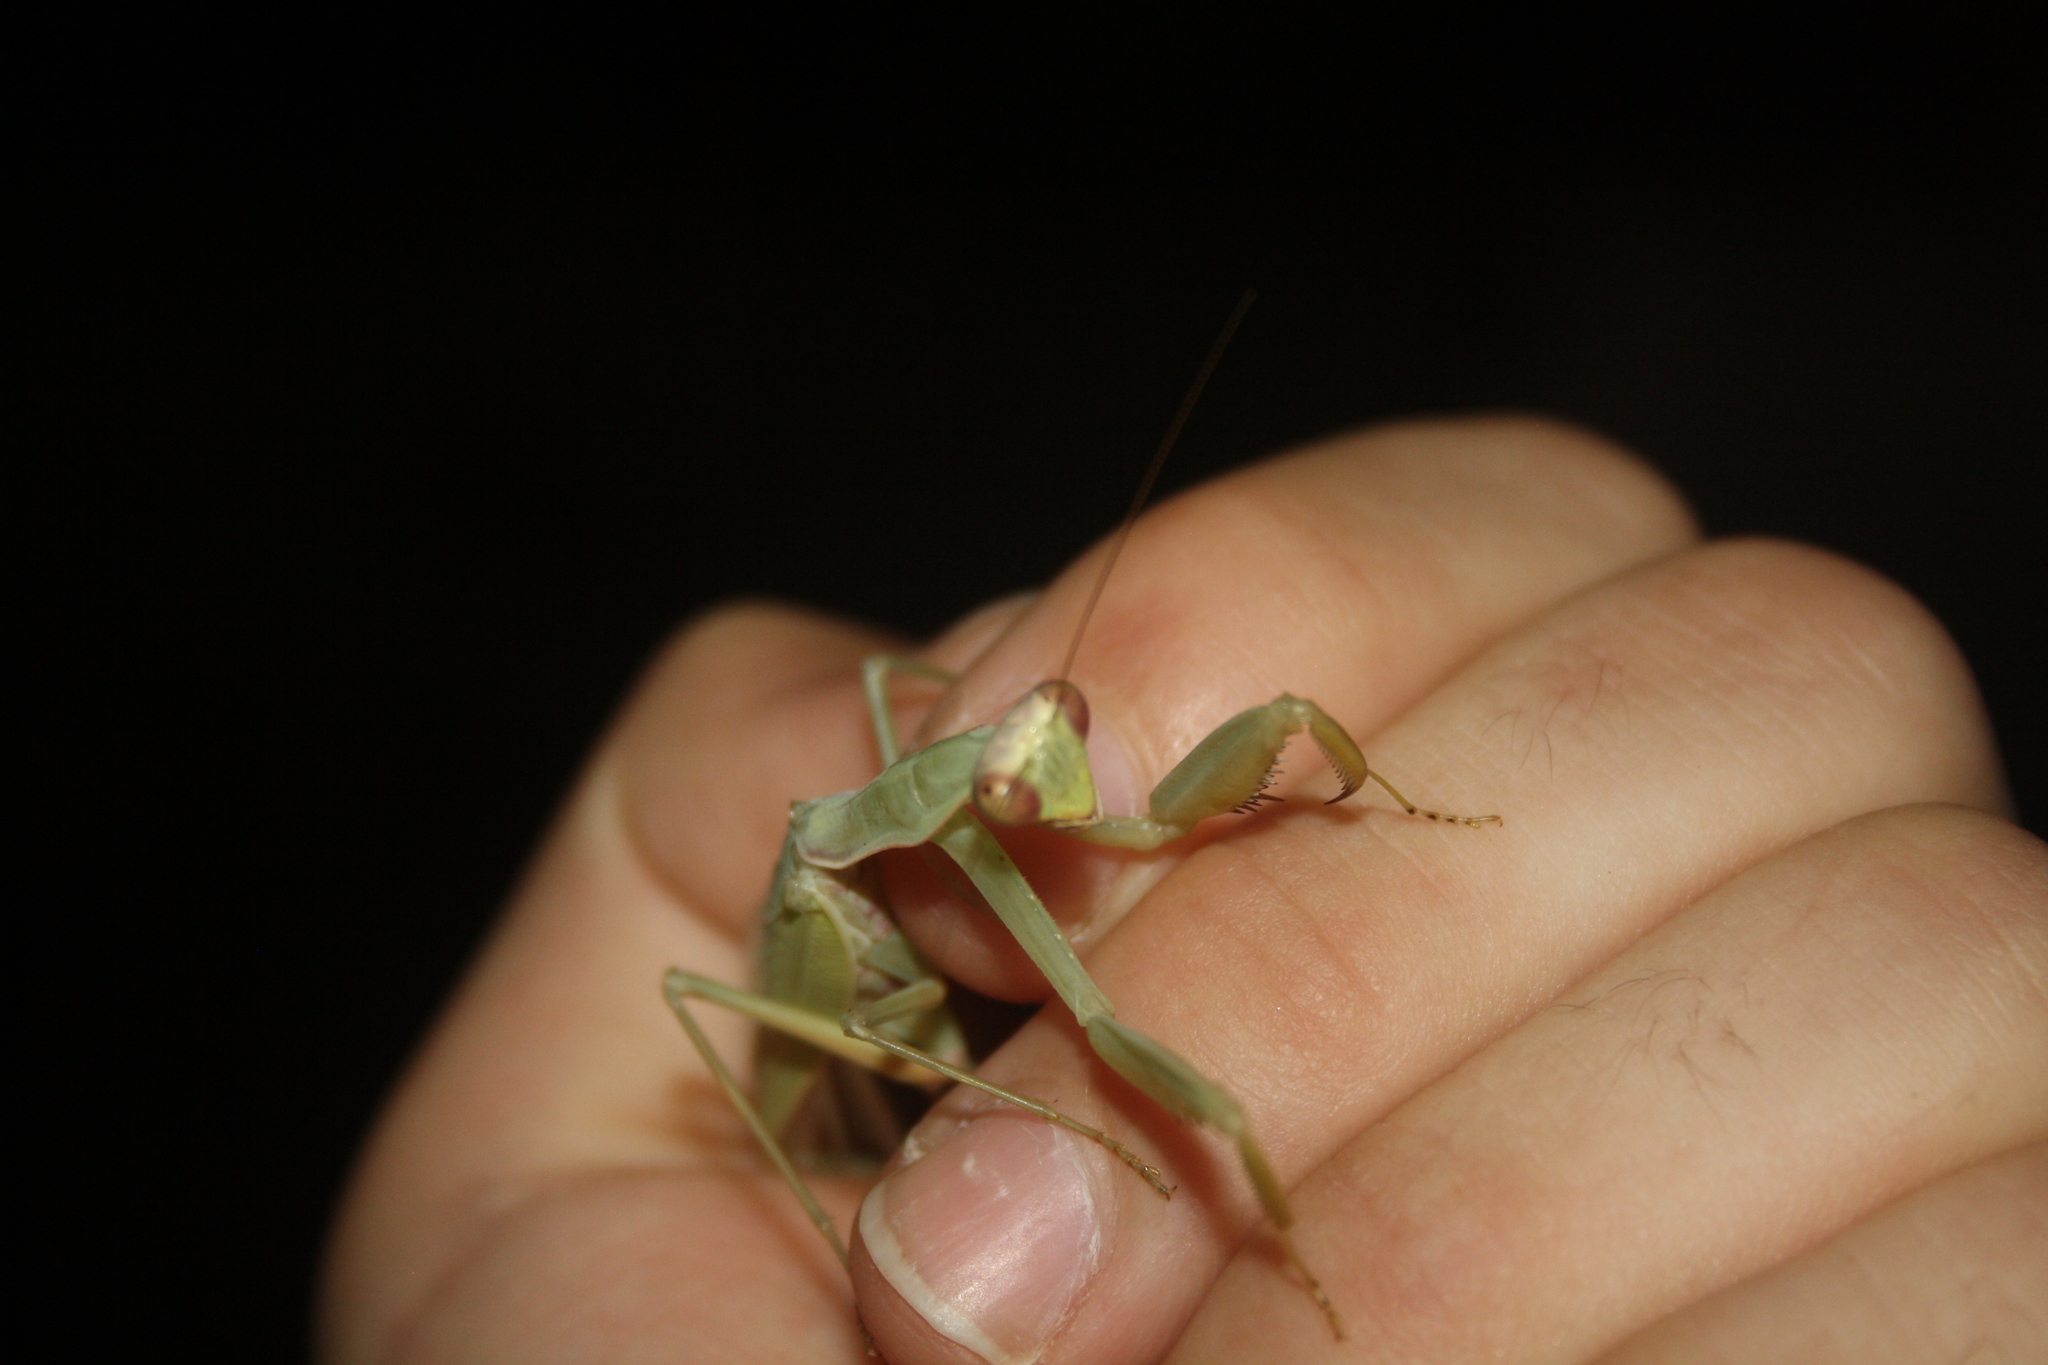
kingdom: Animalia
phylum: Arthropoda
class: Insecta
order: Mantodea
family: Mantidae
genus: Hierodula
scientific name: Hierodula transcaucasica
